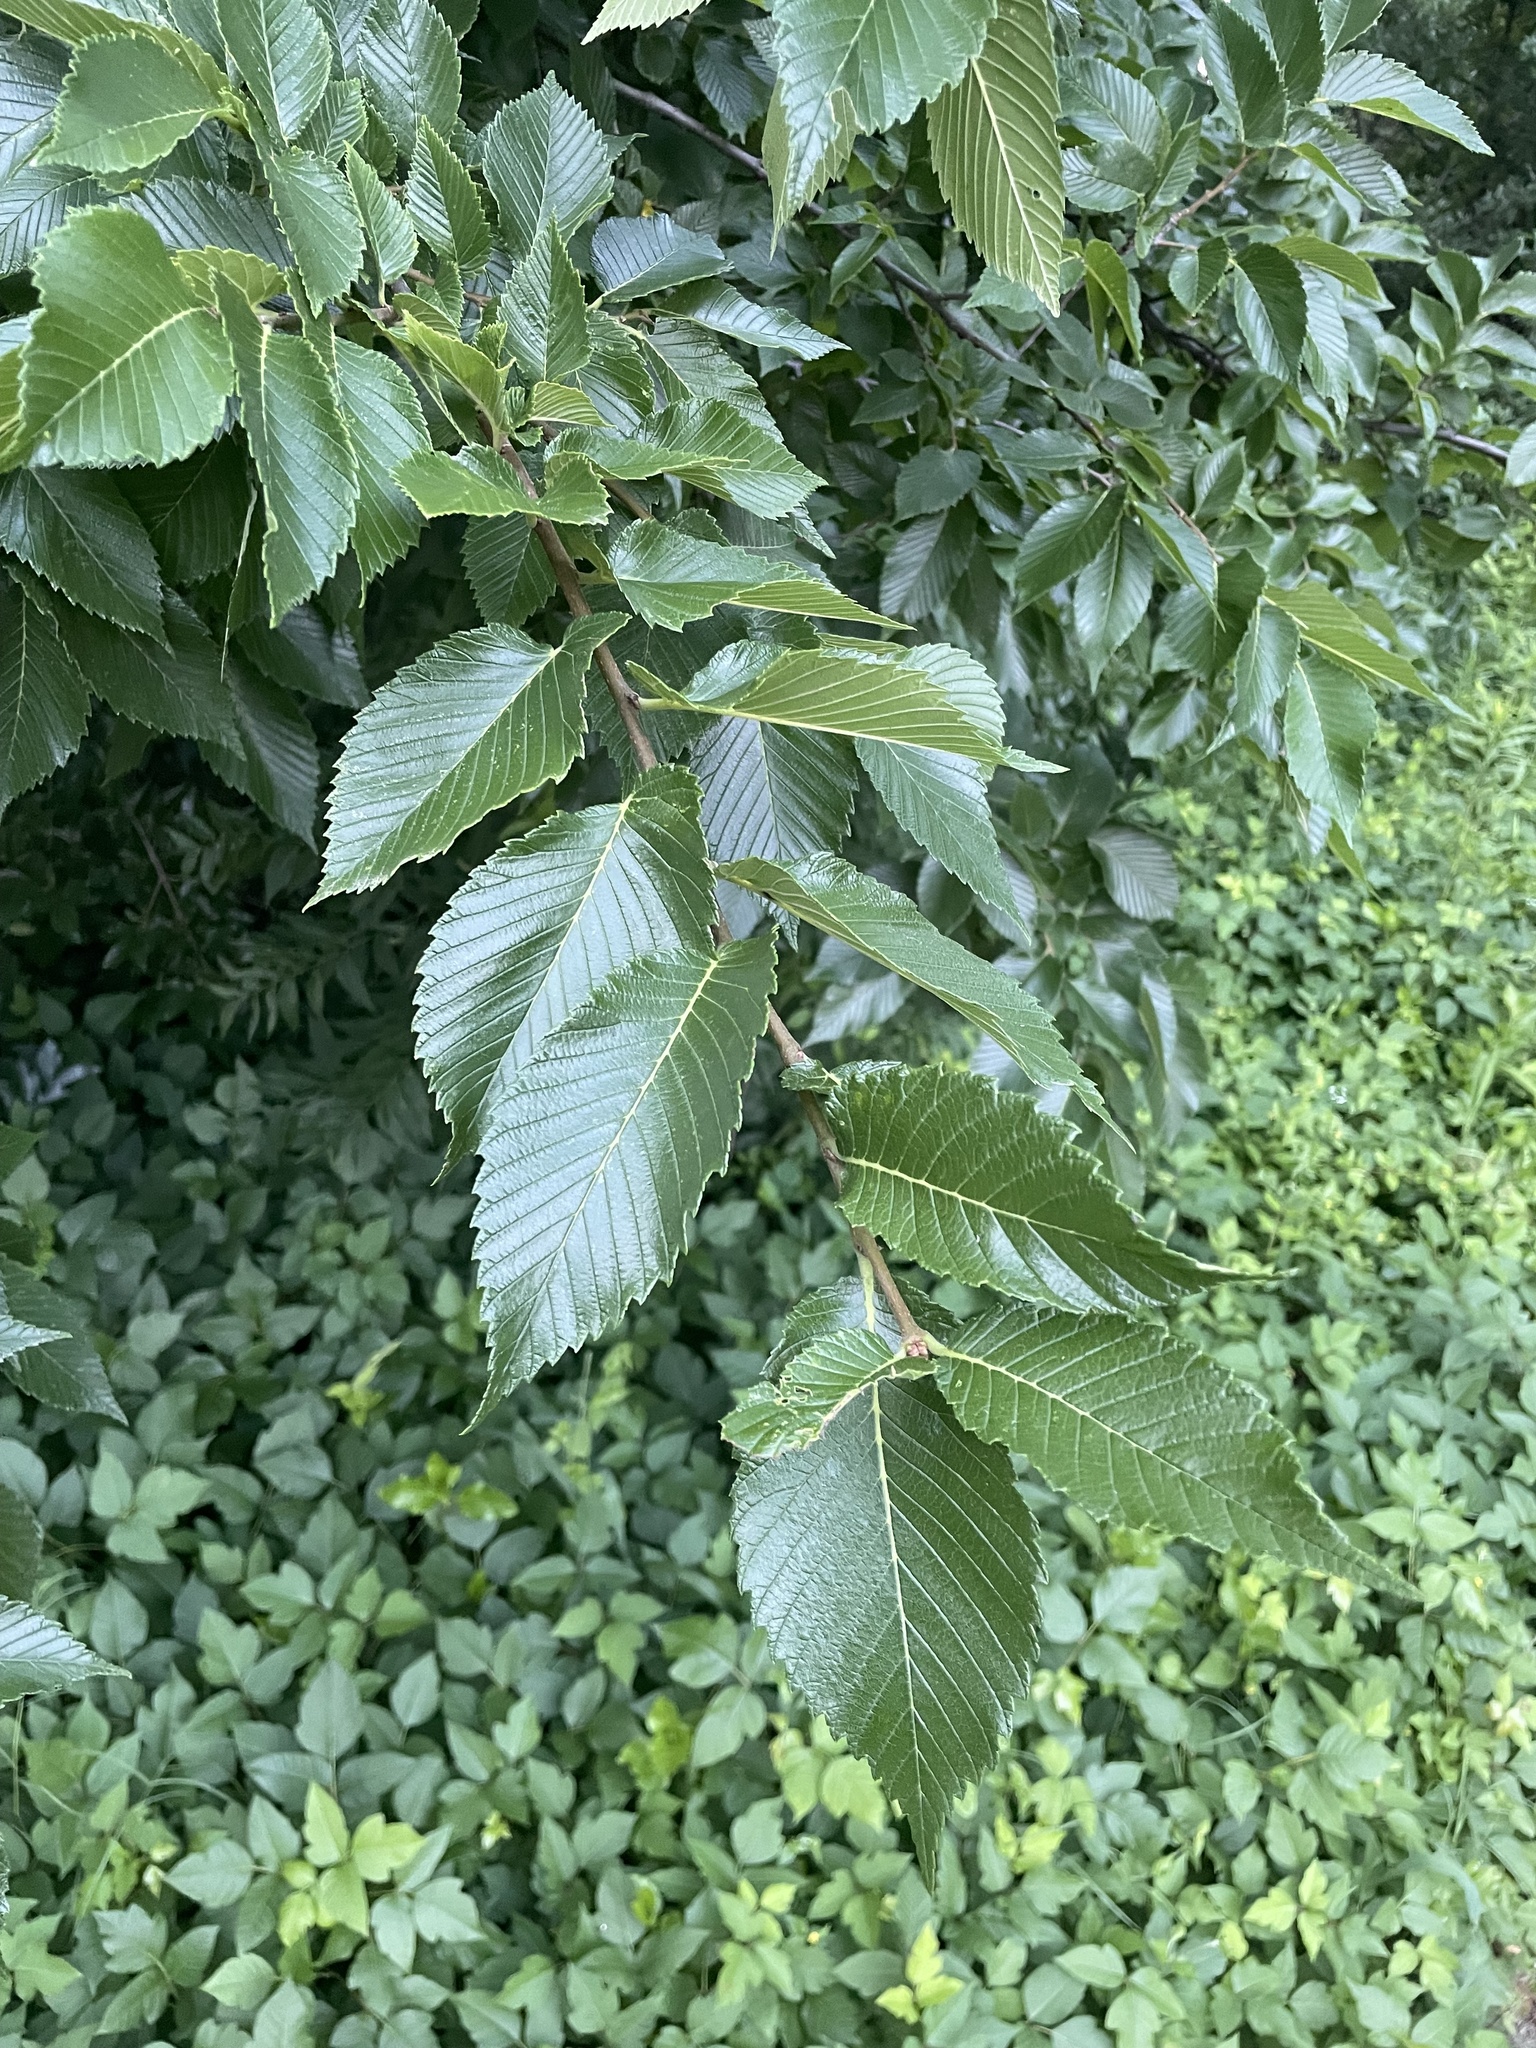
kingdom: Plantae
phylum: Tracheophyta
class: Magnoliopsida
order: Rosales
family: Ulmaceae
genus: Ulmus
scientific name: Ulmus americana
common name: American elm
